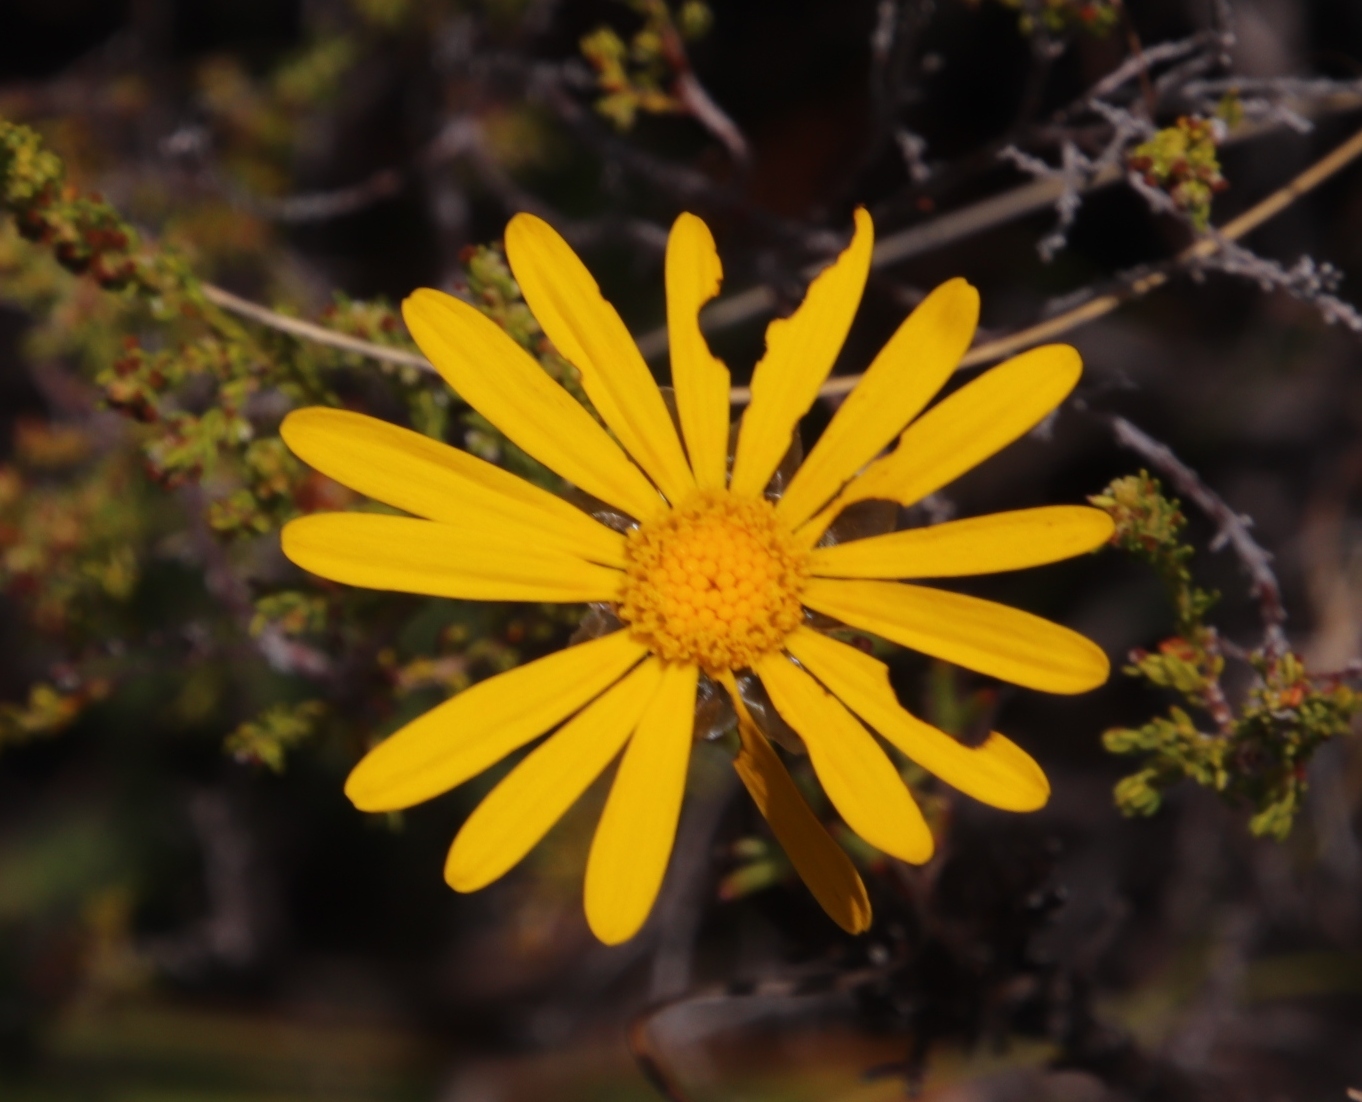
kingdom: Plantae
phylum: Tracheophyta
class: Magnoliopsida
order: Asterales
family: Asteraceae
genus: Ursinia
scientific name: Ursinia paleacea
